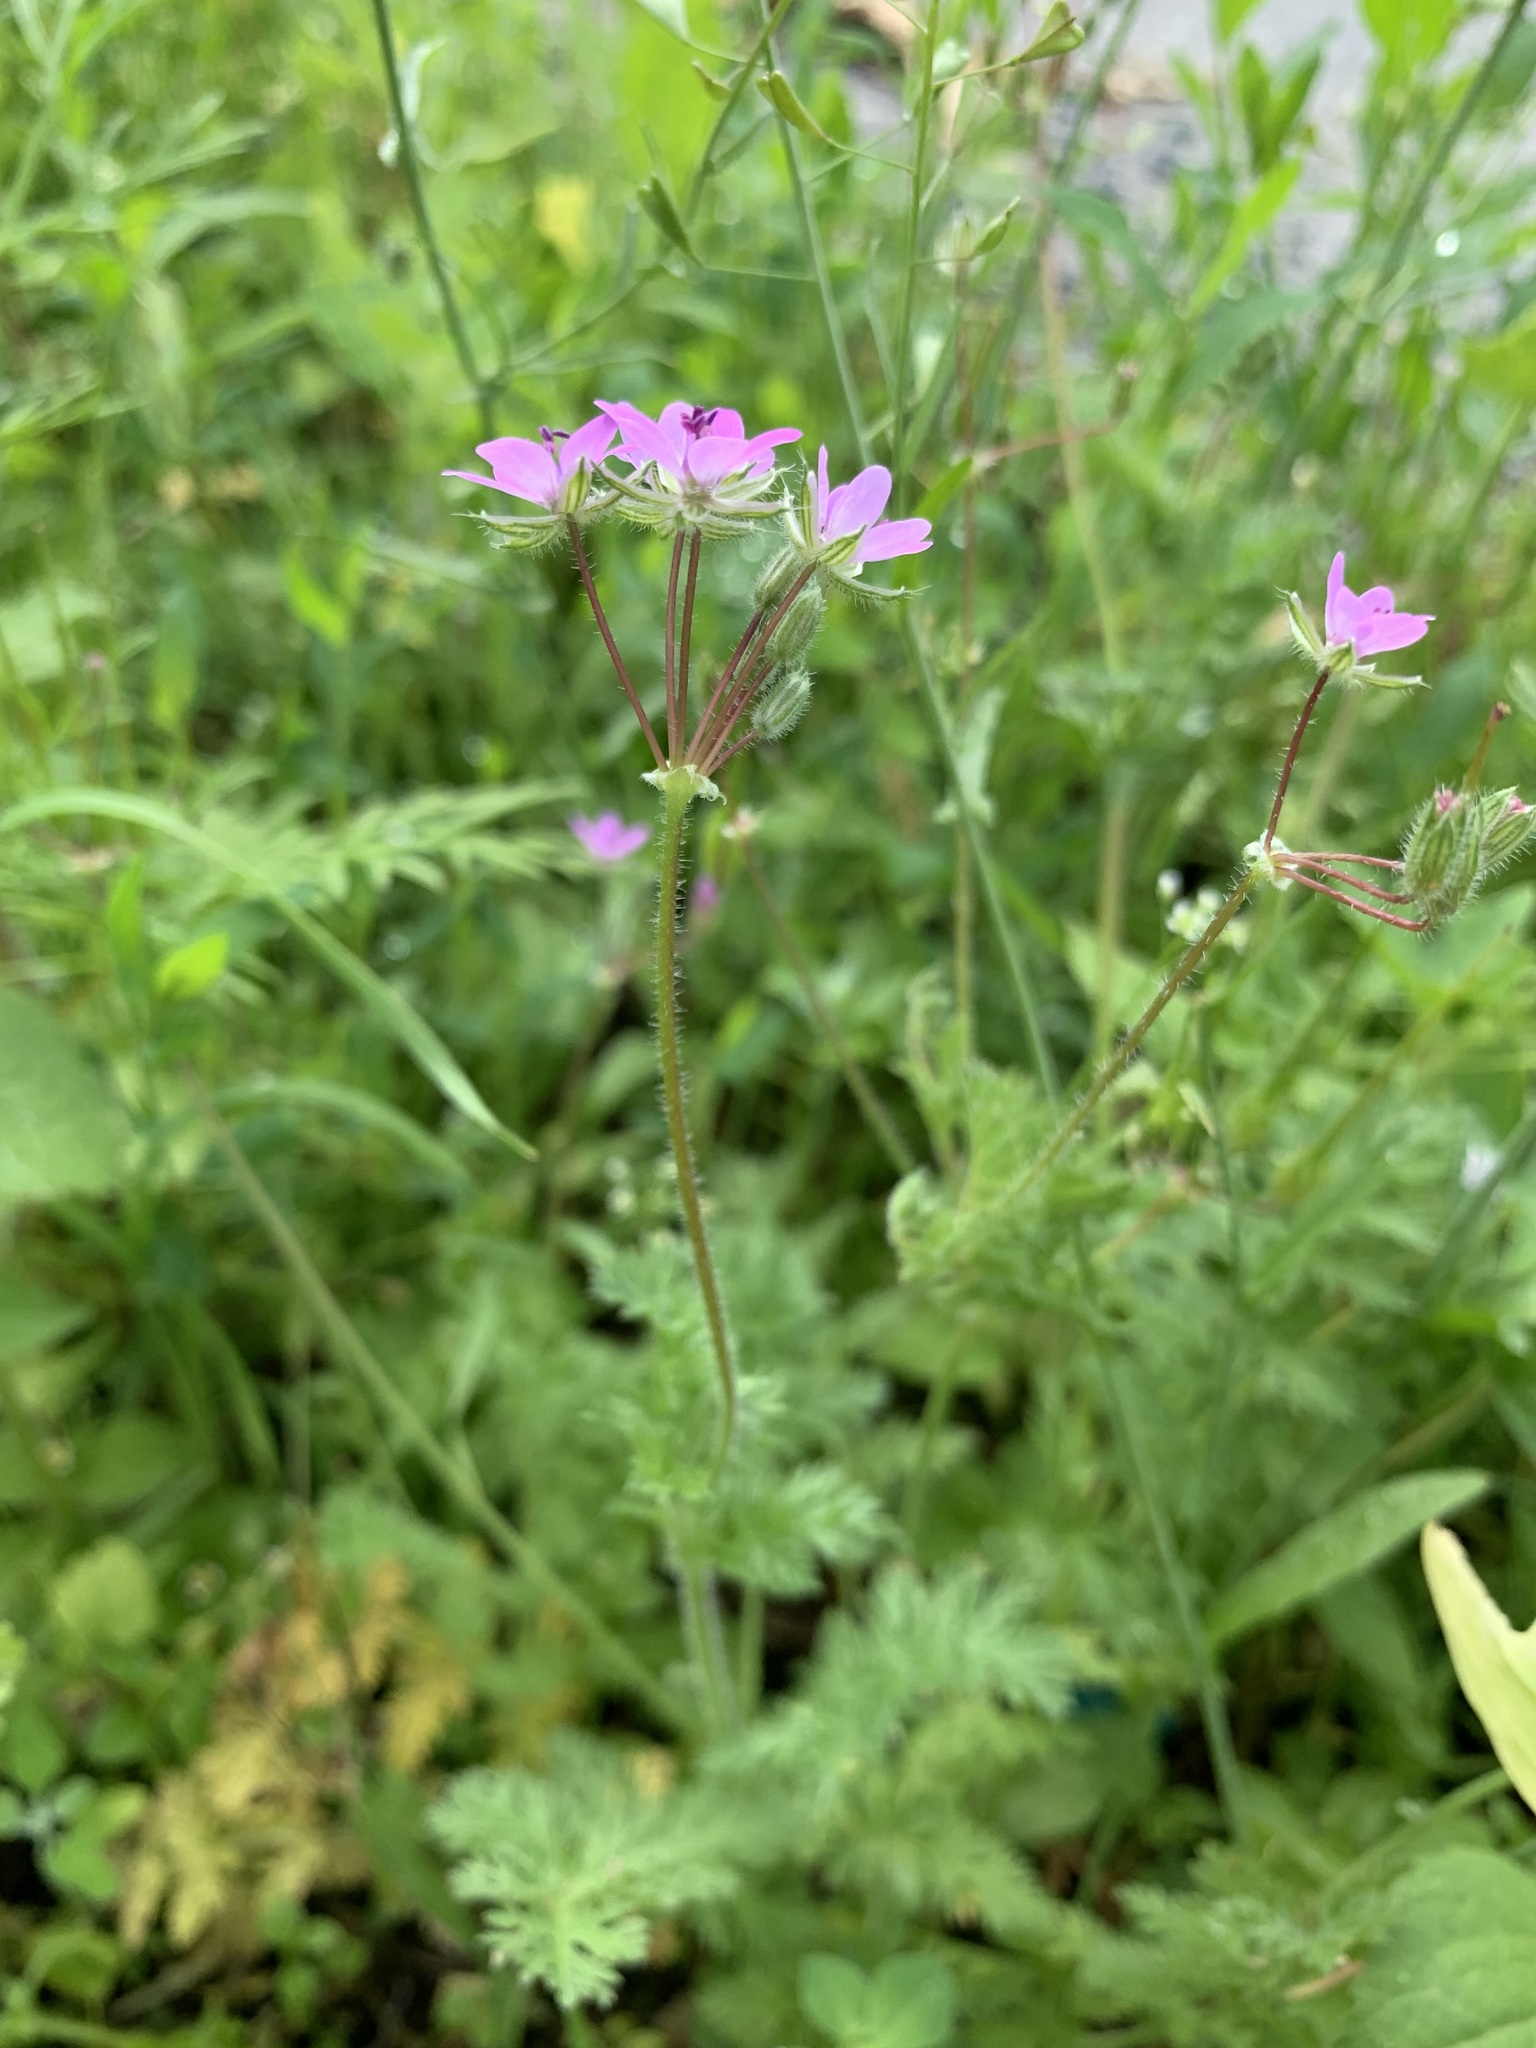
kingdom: Plantae
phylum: Tracheophyta
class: Magnoliopsida
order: Geraniales
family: Geraniaceae
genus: Erodium
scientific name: Erodium cicutarium
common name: Common stork's-bill
